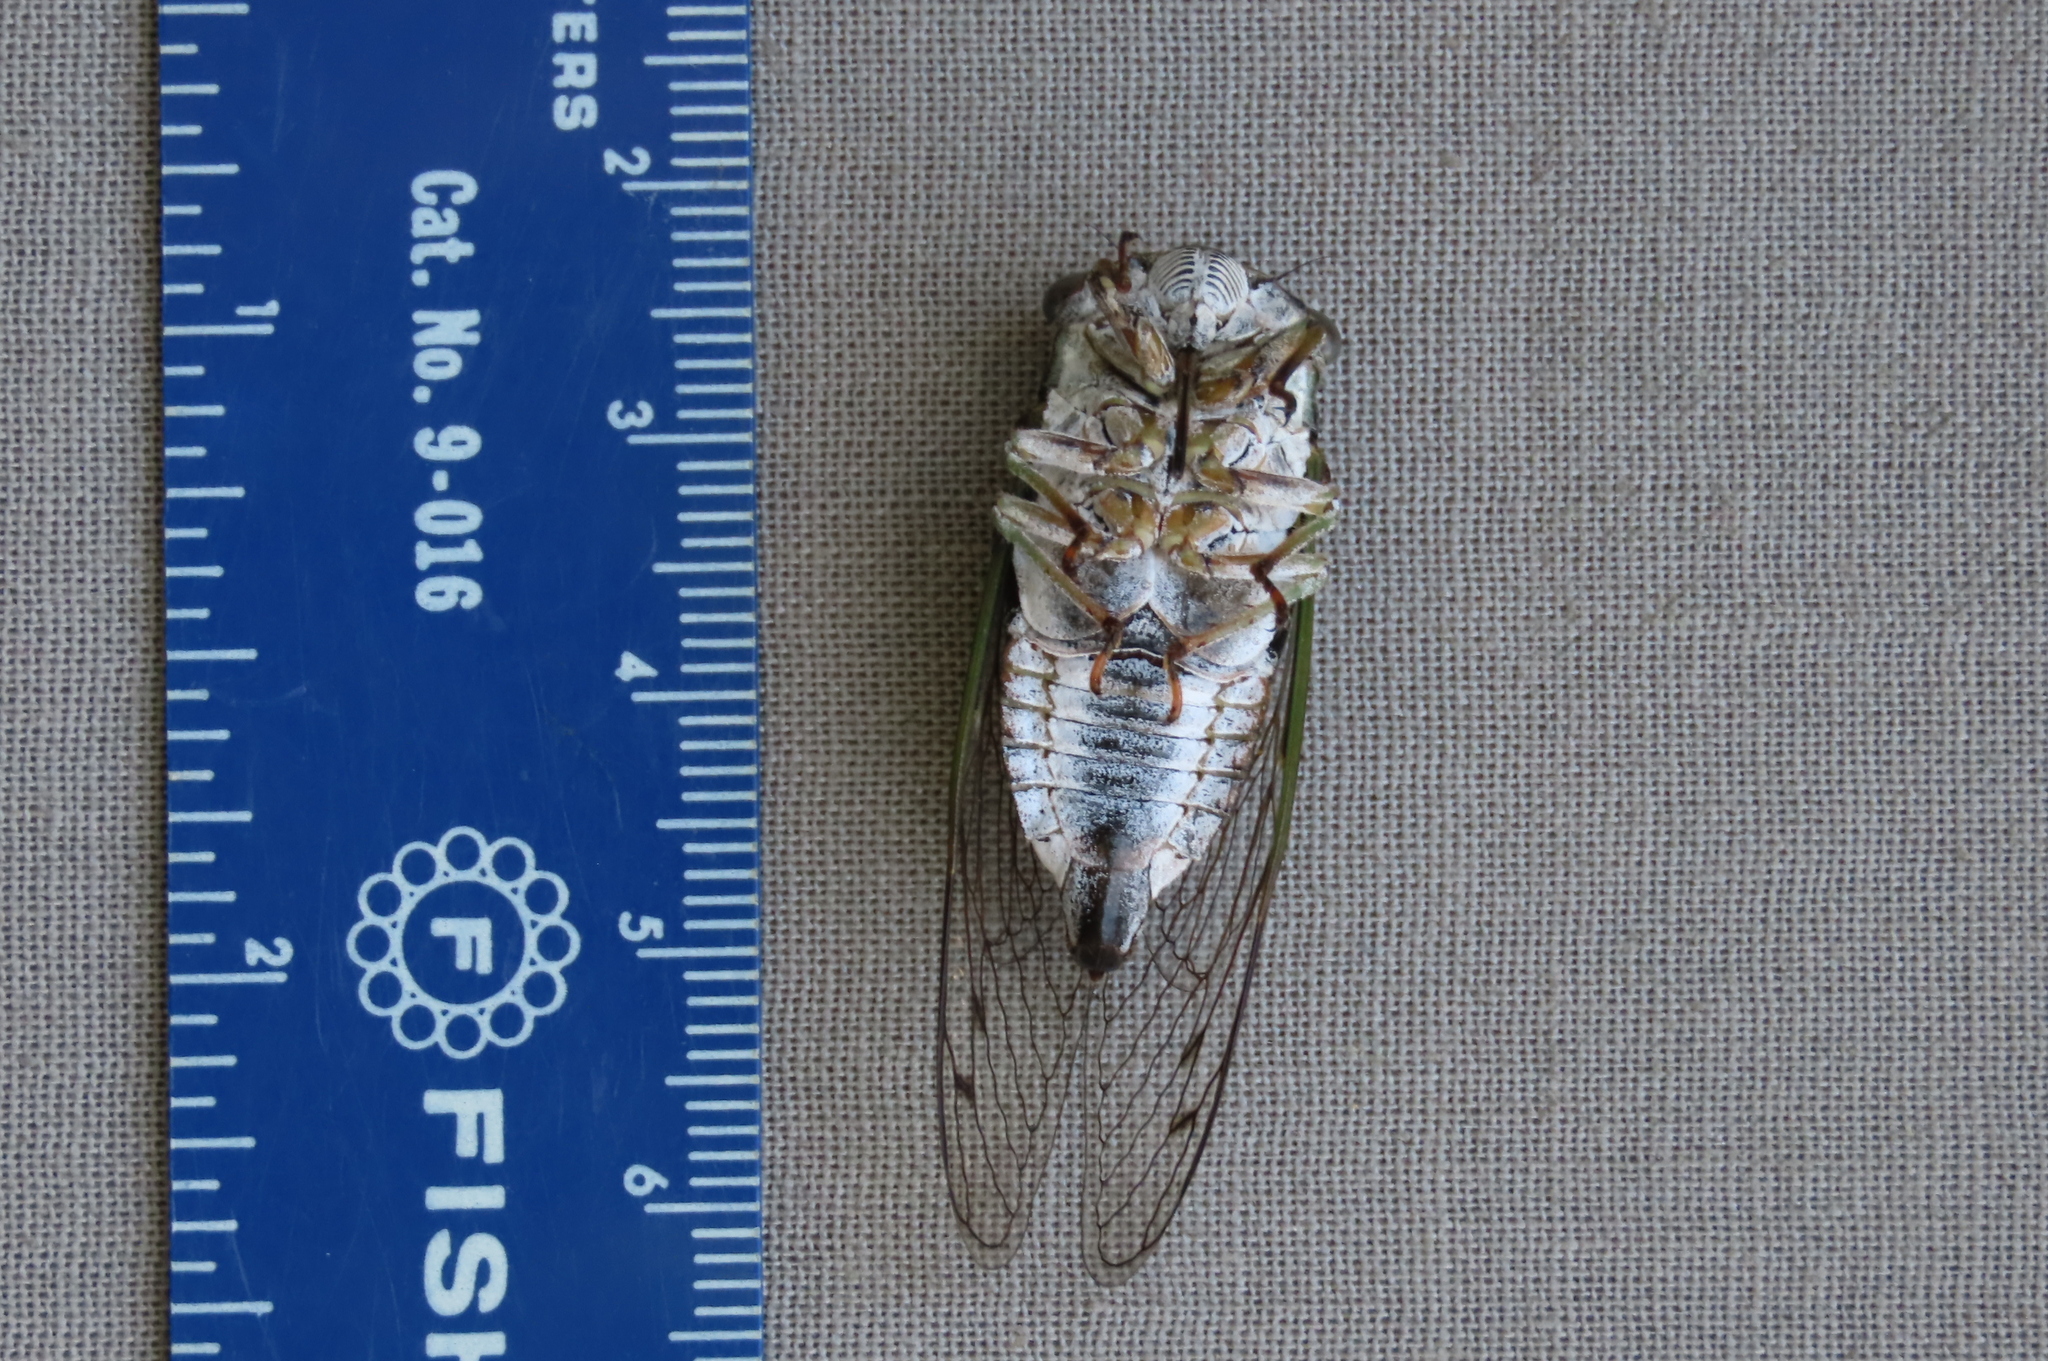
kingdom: Animalia
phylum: Arthropoda
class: Insecta
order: Hemiptera
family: Cicadidae
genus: Neotibicen
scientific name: Neotibicen canicularis
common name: God-day cicada
